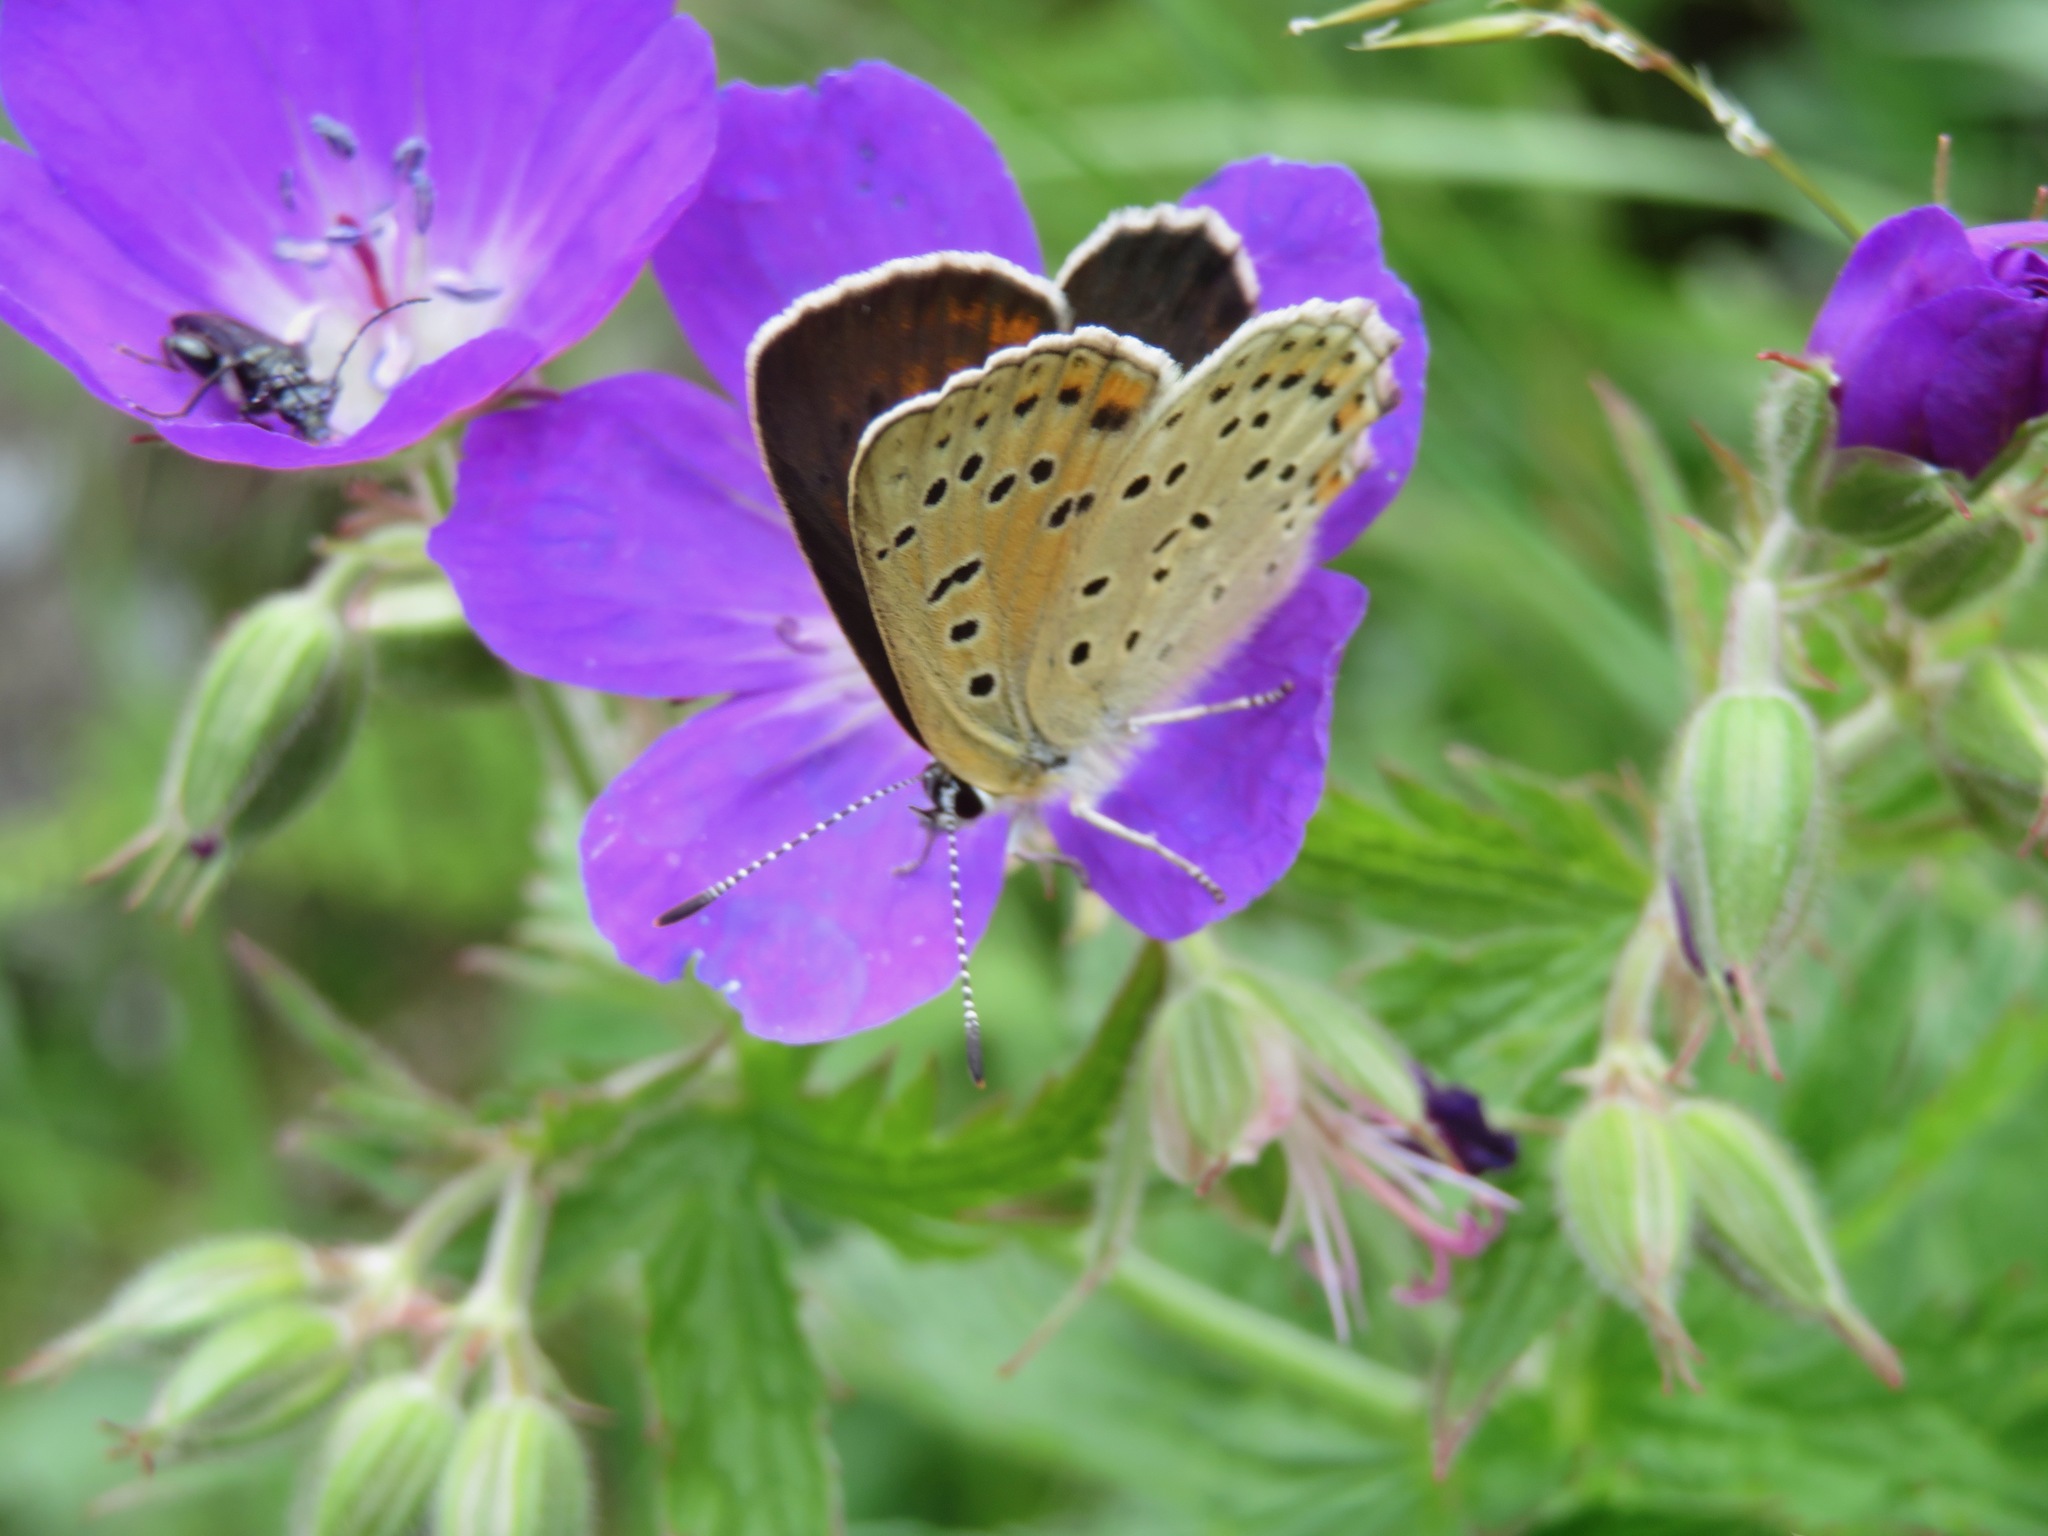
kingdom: Animalia
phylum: Arthropoda
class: Insecta
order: Lepidoptera
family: Lycaenidae
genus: Loweia
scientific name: Loweia tityrus
